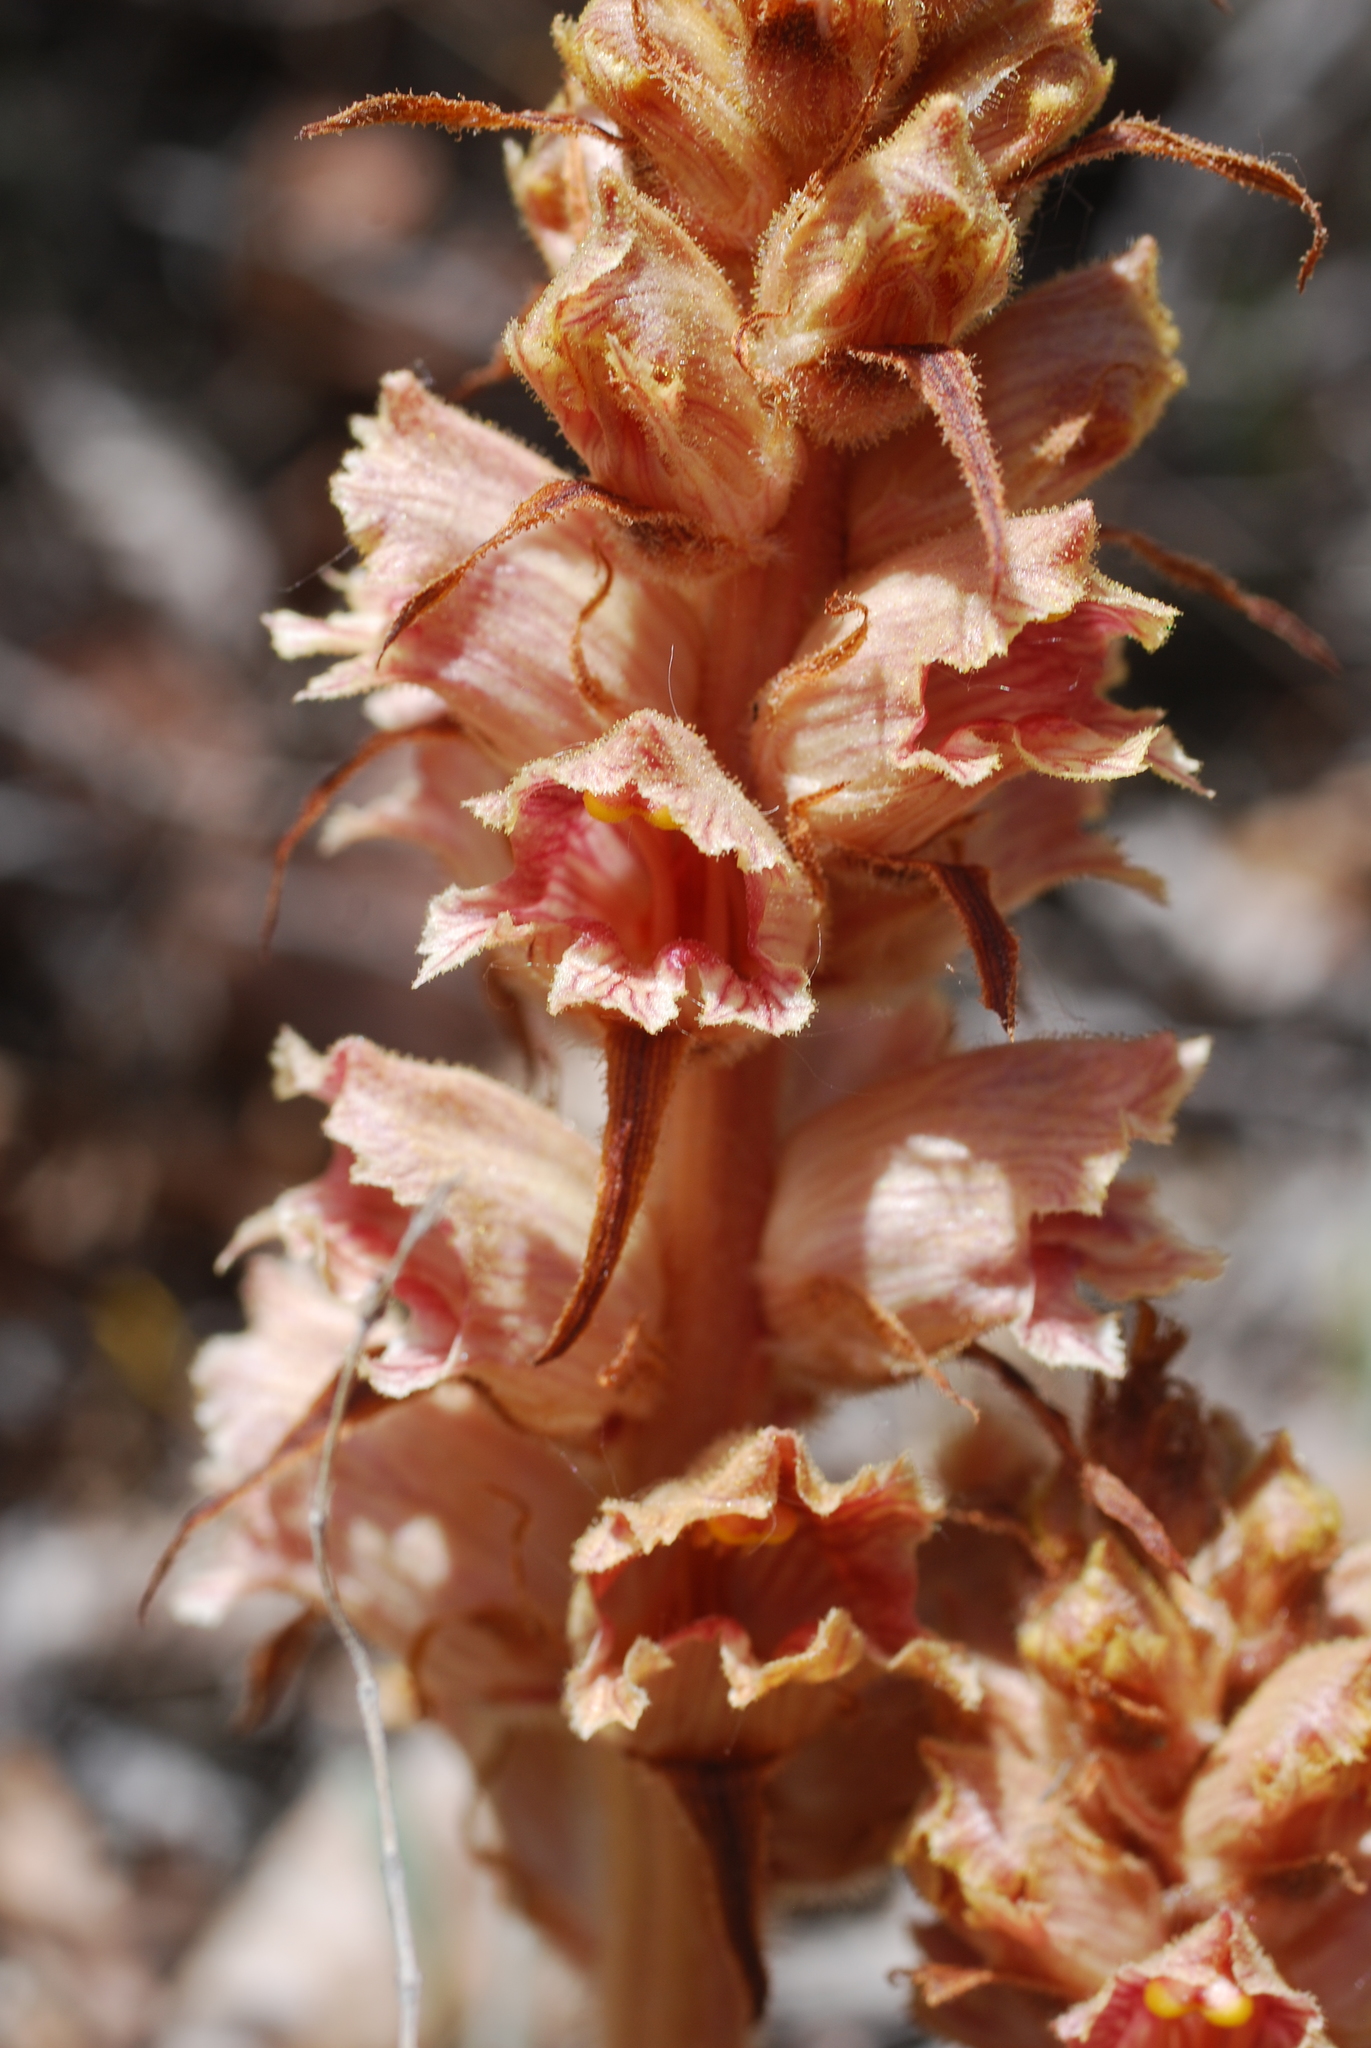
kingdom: Plantae
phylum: Tracheophyta
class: Magnoliopsida
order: Lamiales
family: Orobanchaceae
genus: Orobanche
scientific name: Orobanche austrohispanica
